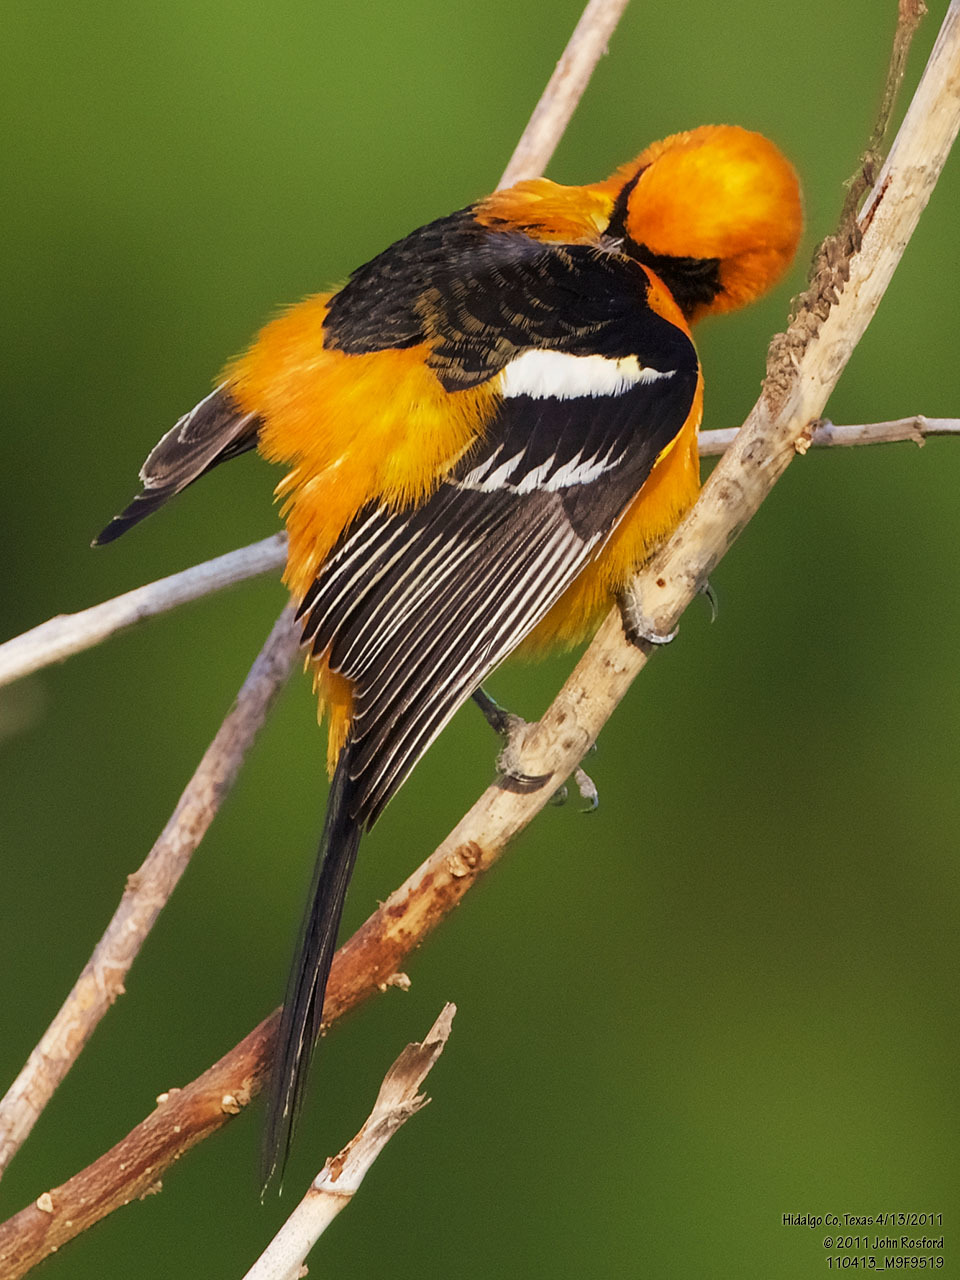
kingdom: Animalia
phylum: Chordata
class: Aves
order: Passeriformes
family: Icteridae
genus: Icterus
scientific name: Icterus cucullatus
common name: Hooded oriole
